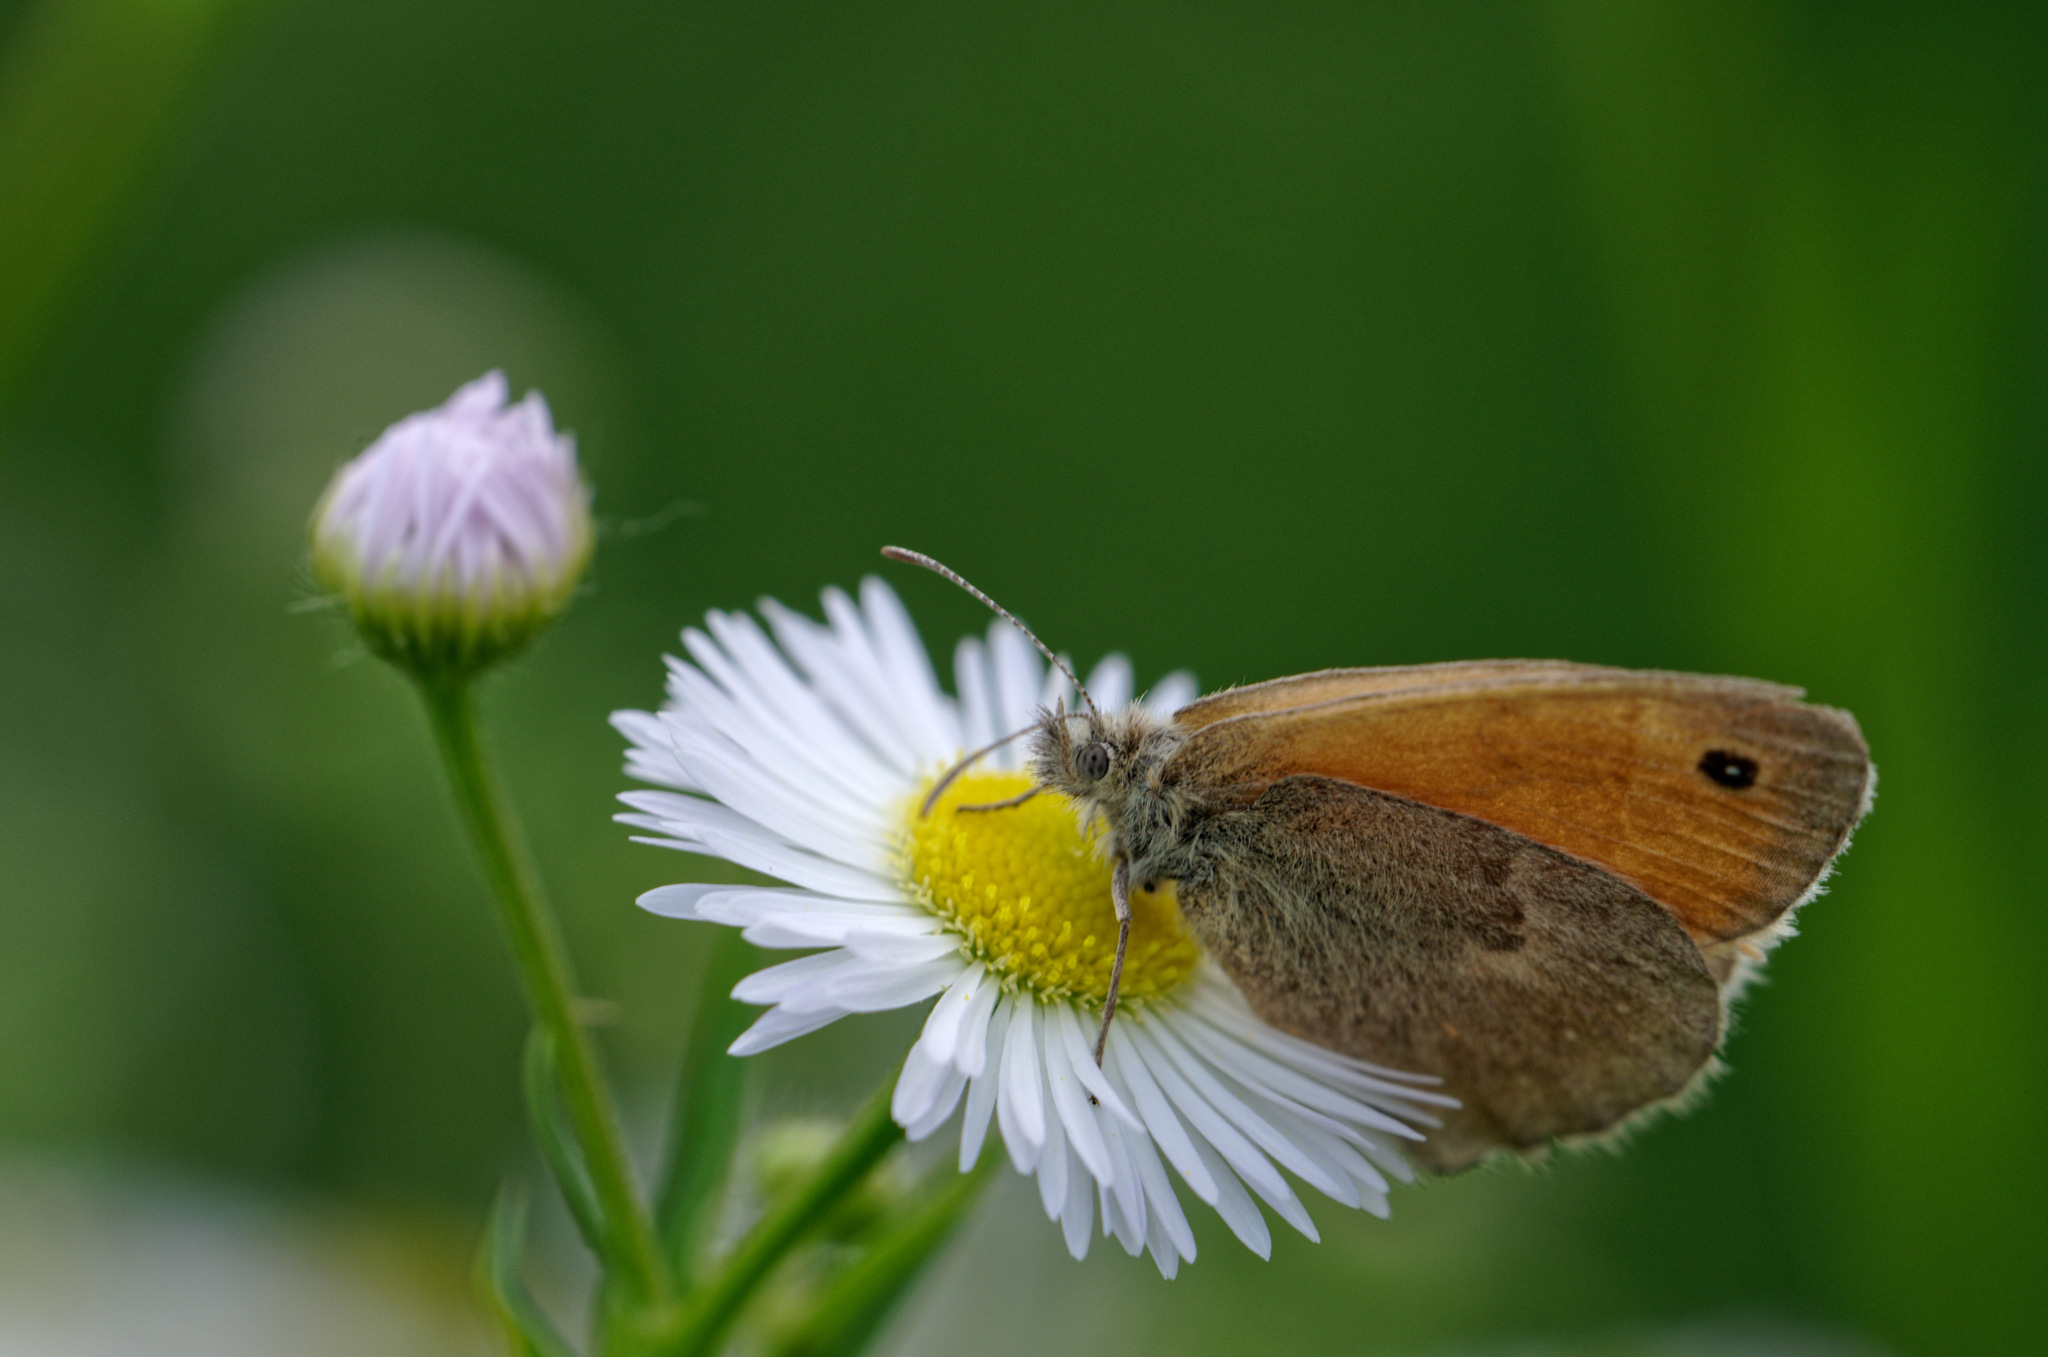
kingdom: Animalia
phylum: Arthropoda
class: Insecta
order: Lepidoptera
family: Nymphalidae
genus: Coenonympha
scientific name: Coenonympha pamphilus
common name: Small heath
